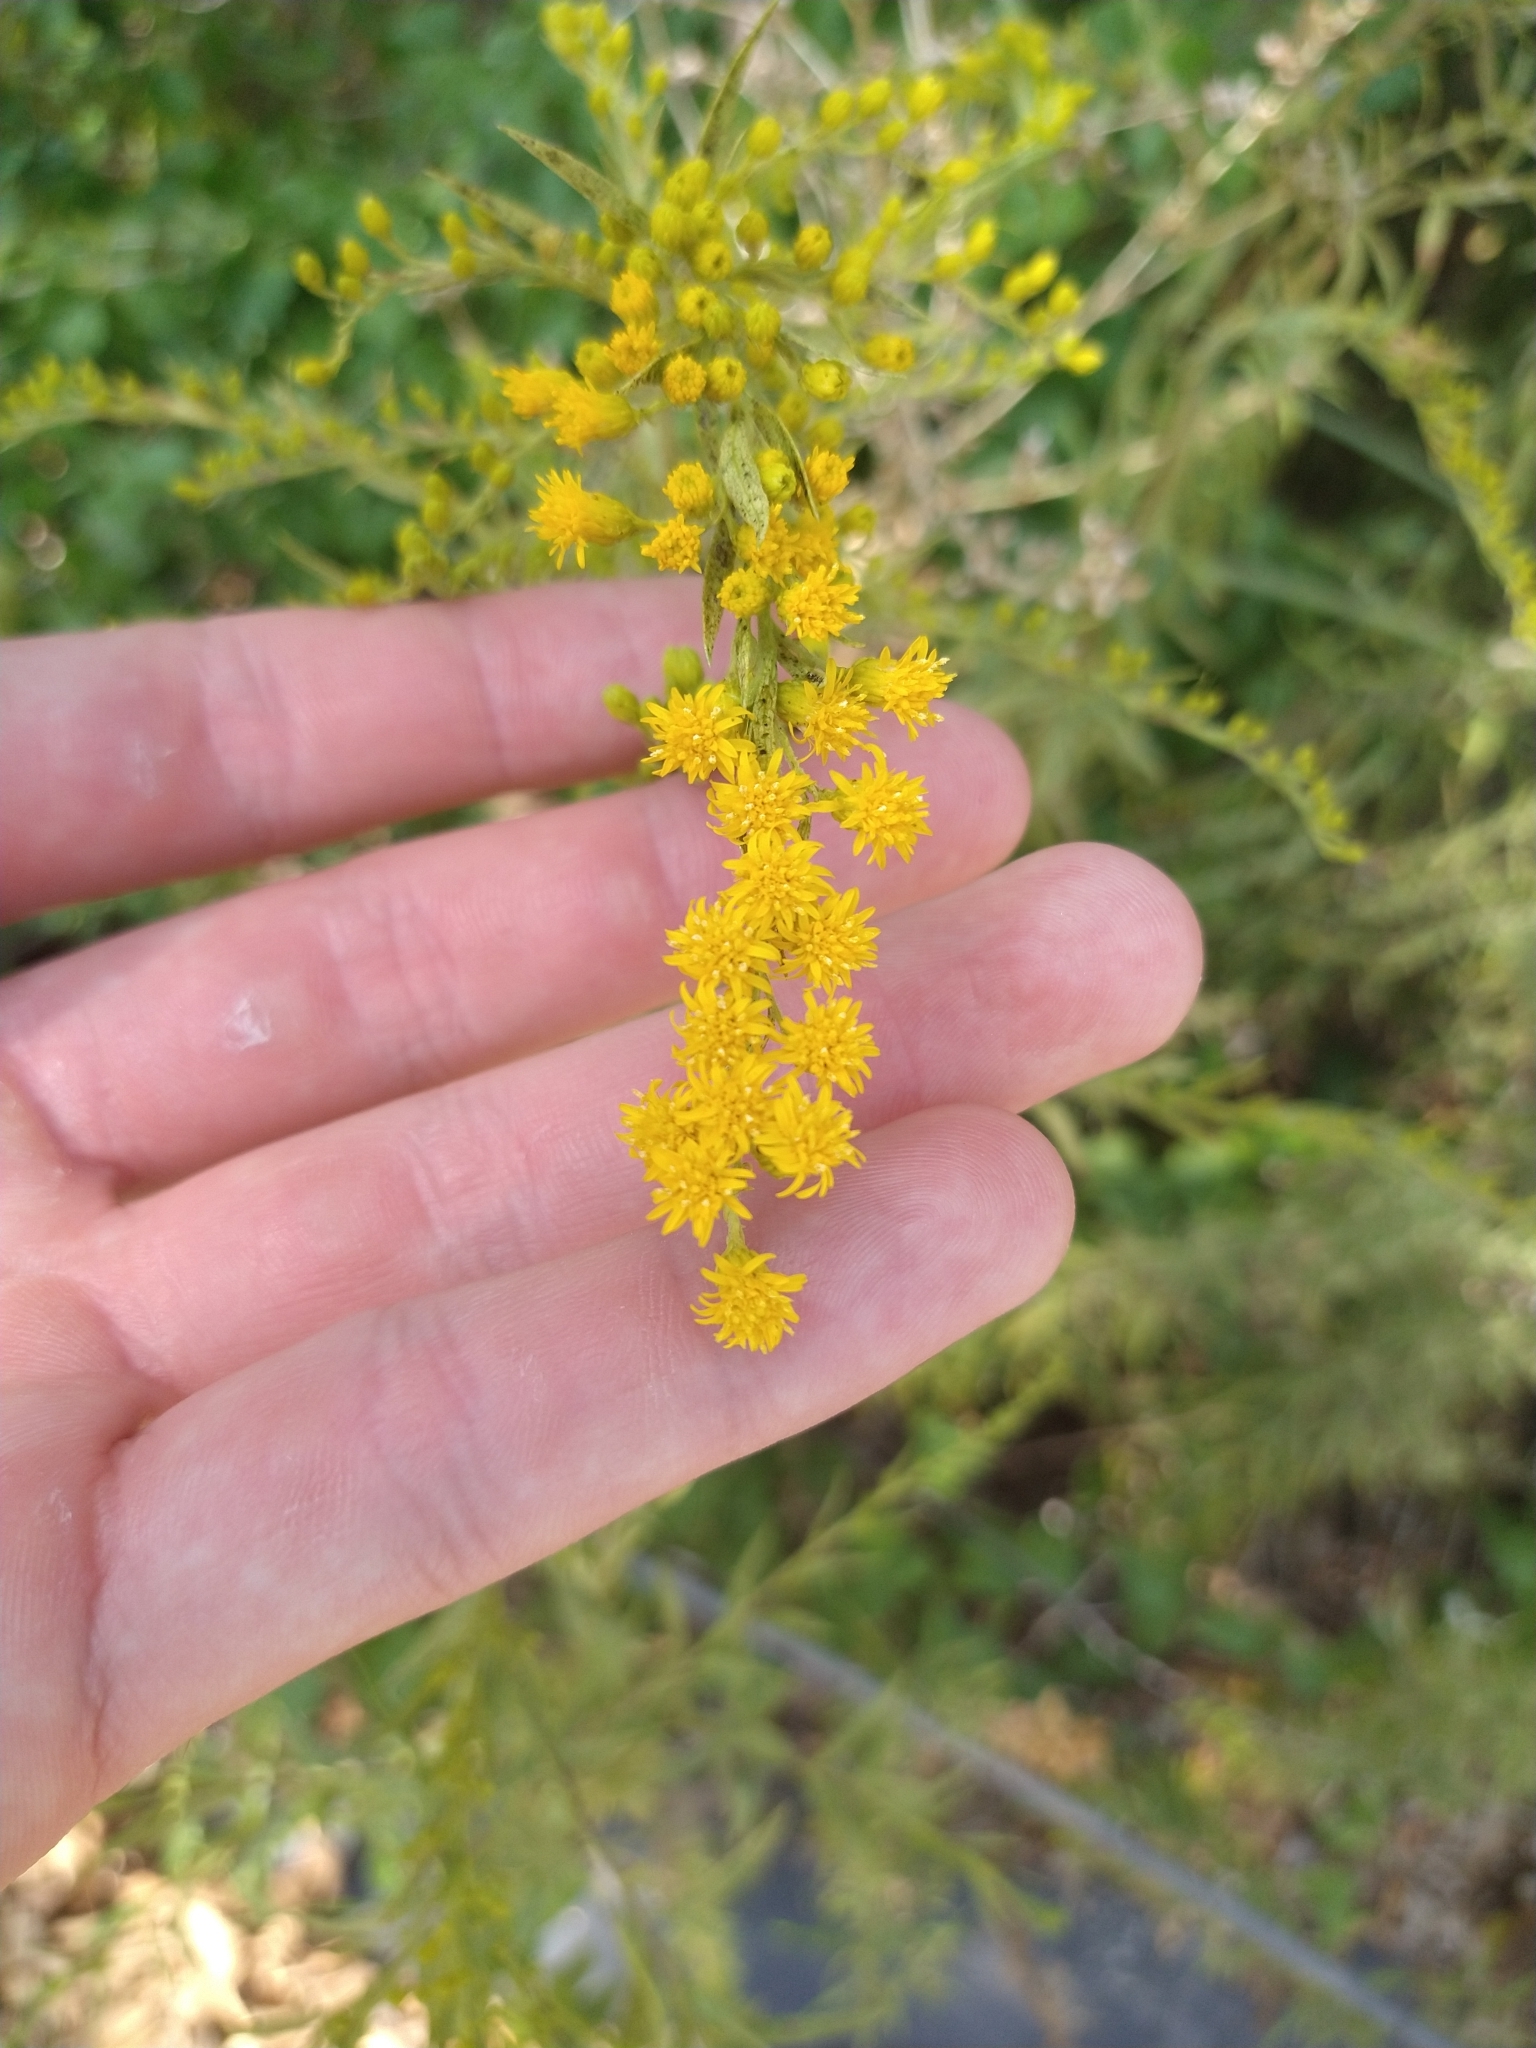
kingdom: Plantae
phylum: Tracheophyta
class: Magnoliopsida
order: Asterales
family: Asteraceae
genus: Solidago
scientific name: Solidago altissima
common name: Late goldenrod
